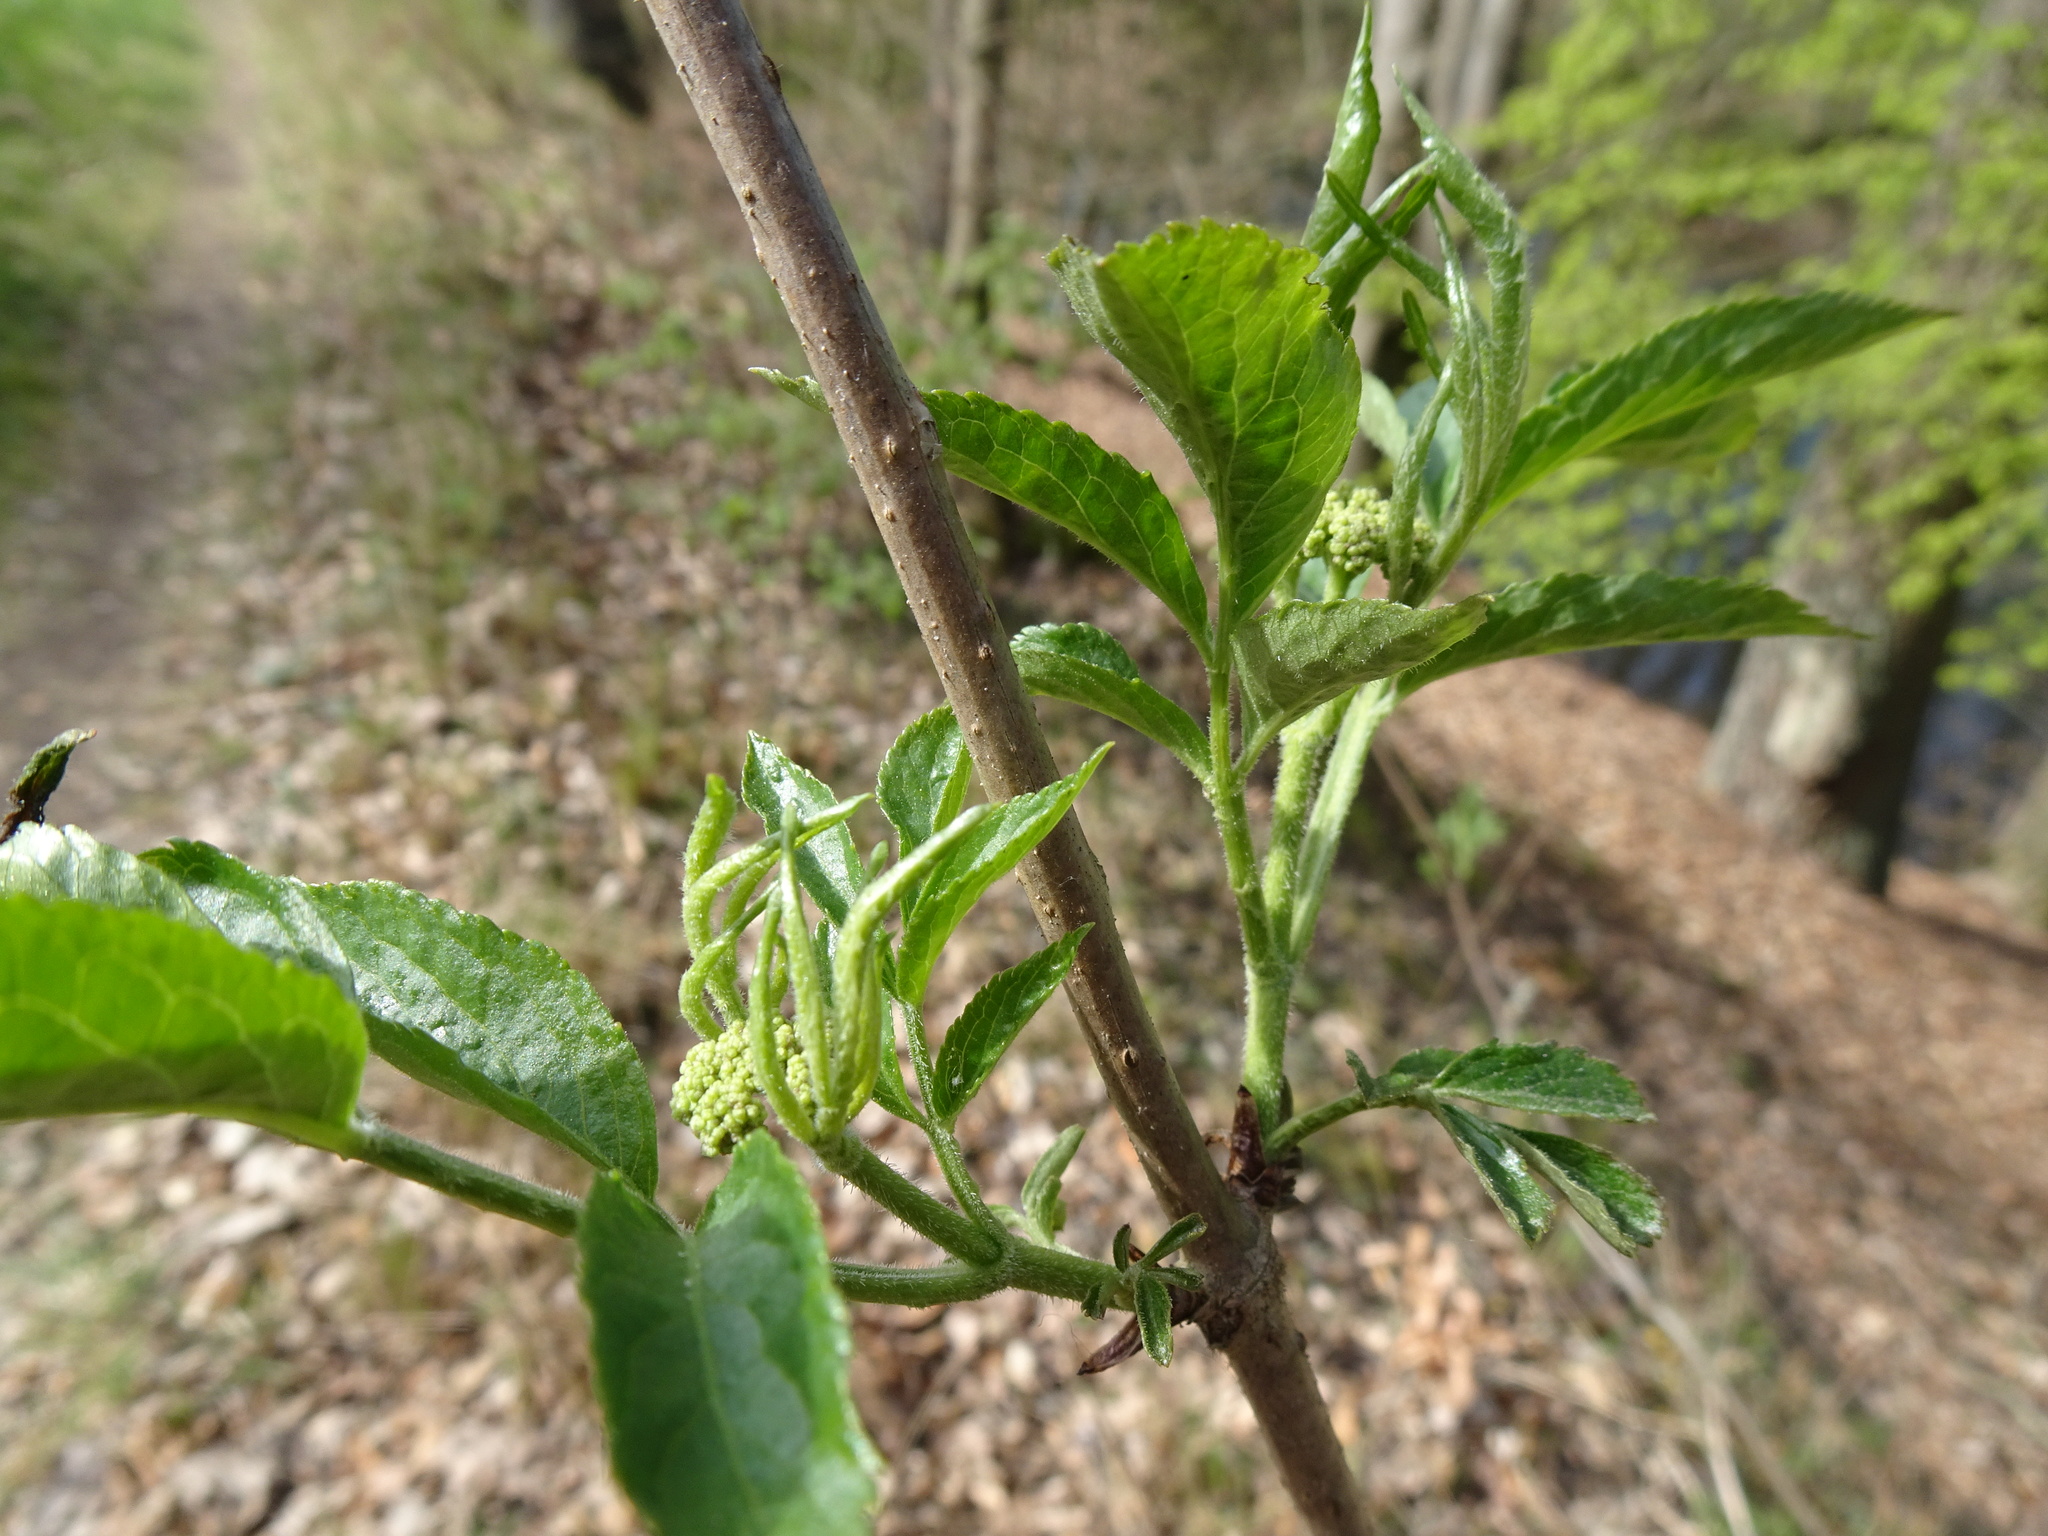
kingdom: Plantae
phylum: Tracheophyta
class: Magnoliopsida
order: Dipsacales
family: Viburnaceae
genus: Sambucus
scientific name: Sambucus nigra
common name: Elder
